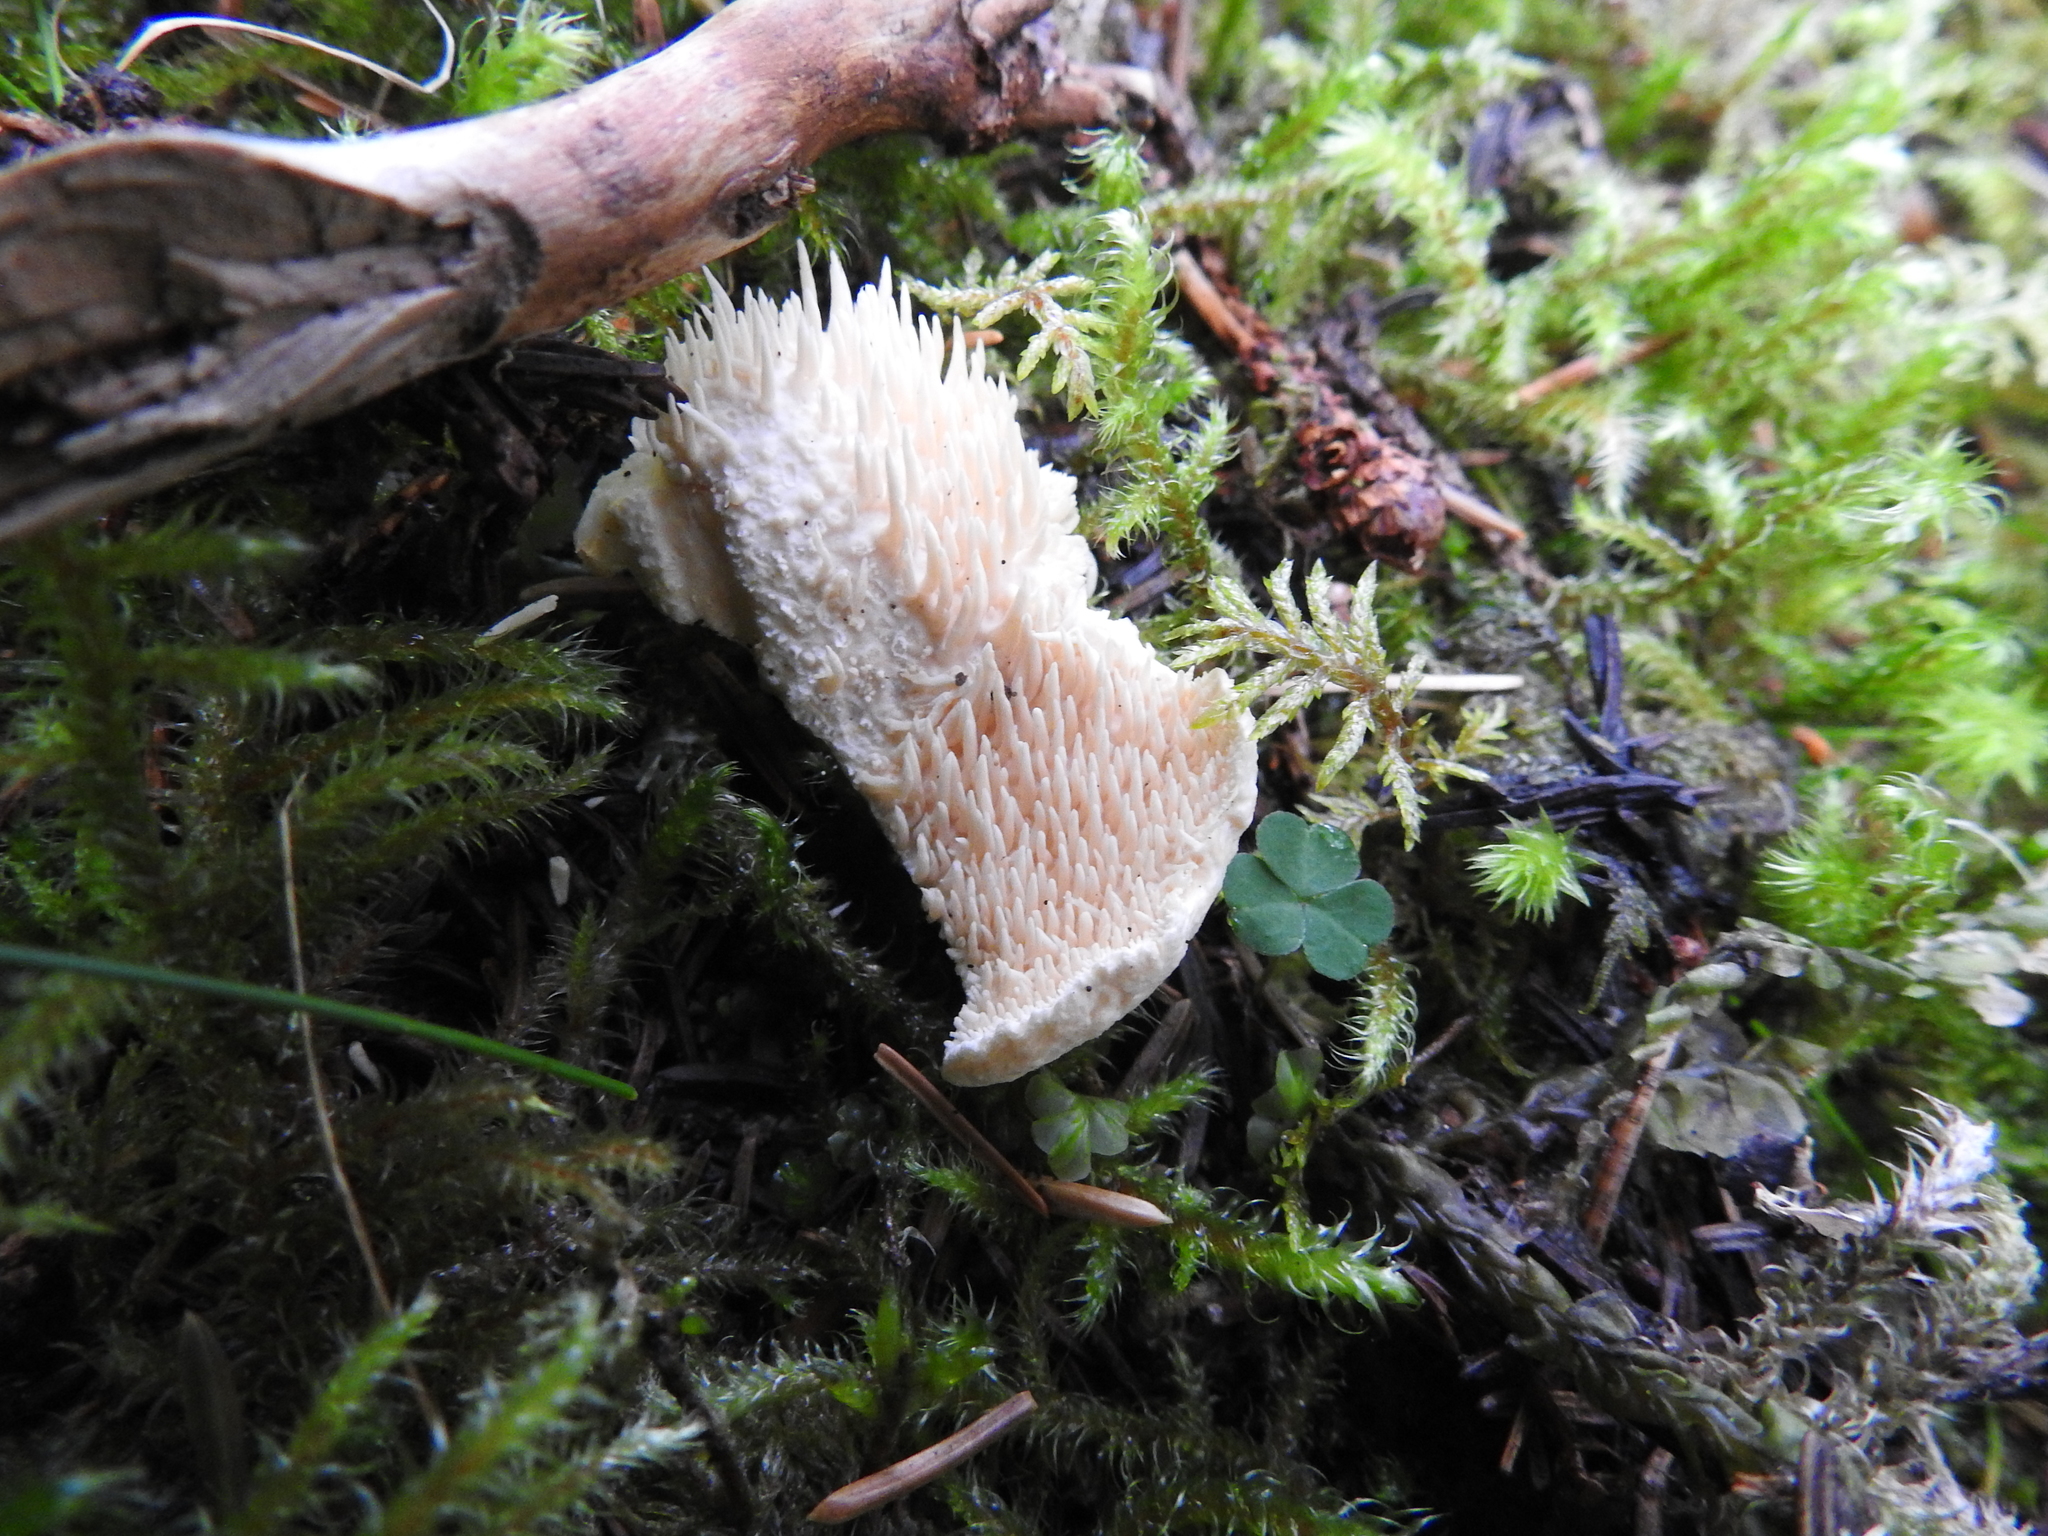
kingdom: Fungi
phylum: Basidiomycota
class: Agaricomycetes
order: Cantharellales
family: Hydnaceae
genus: Hydnum
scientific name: Hydnum repandum
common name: Wood hedgehog
